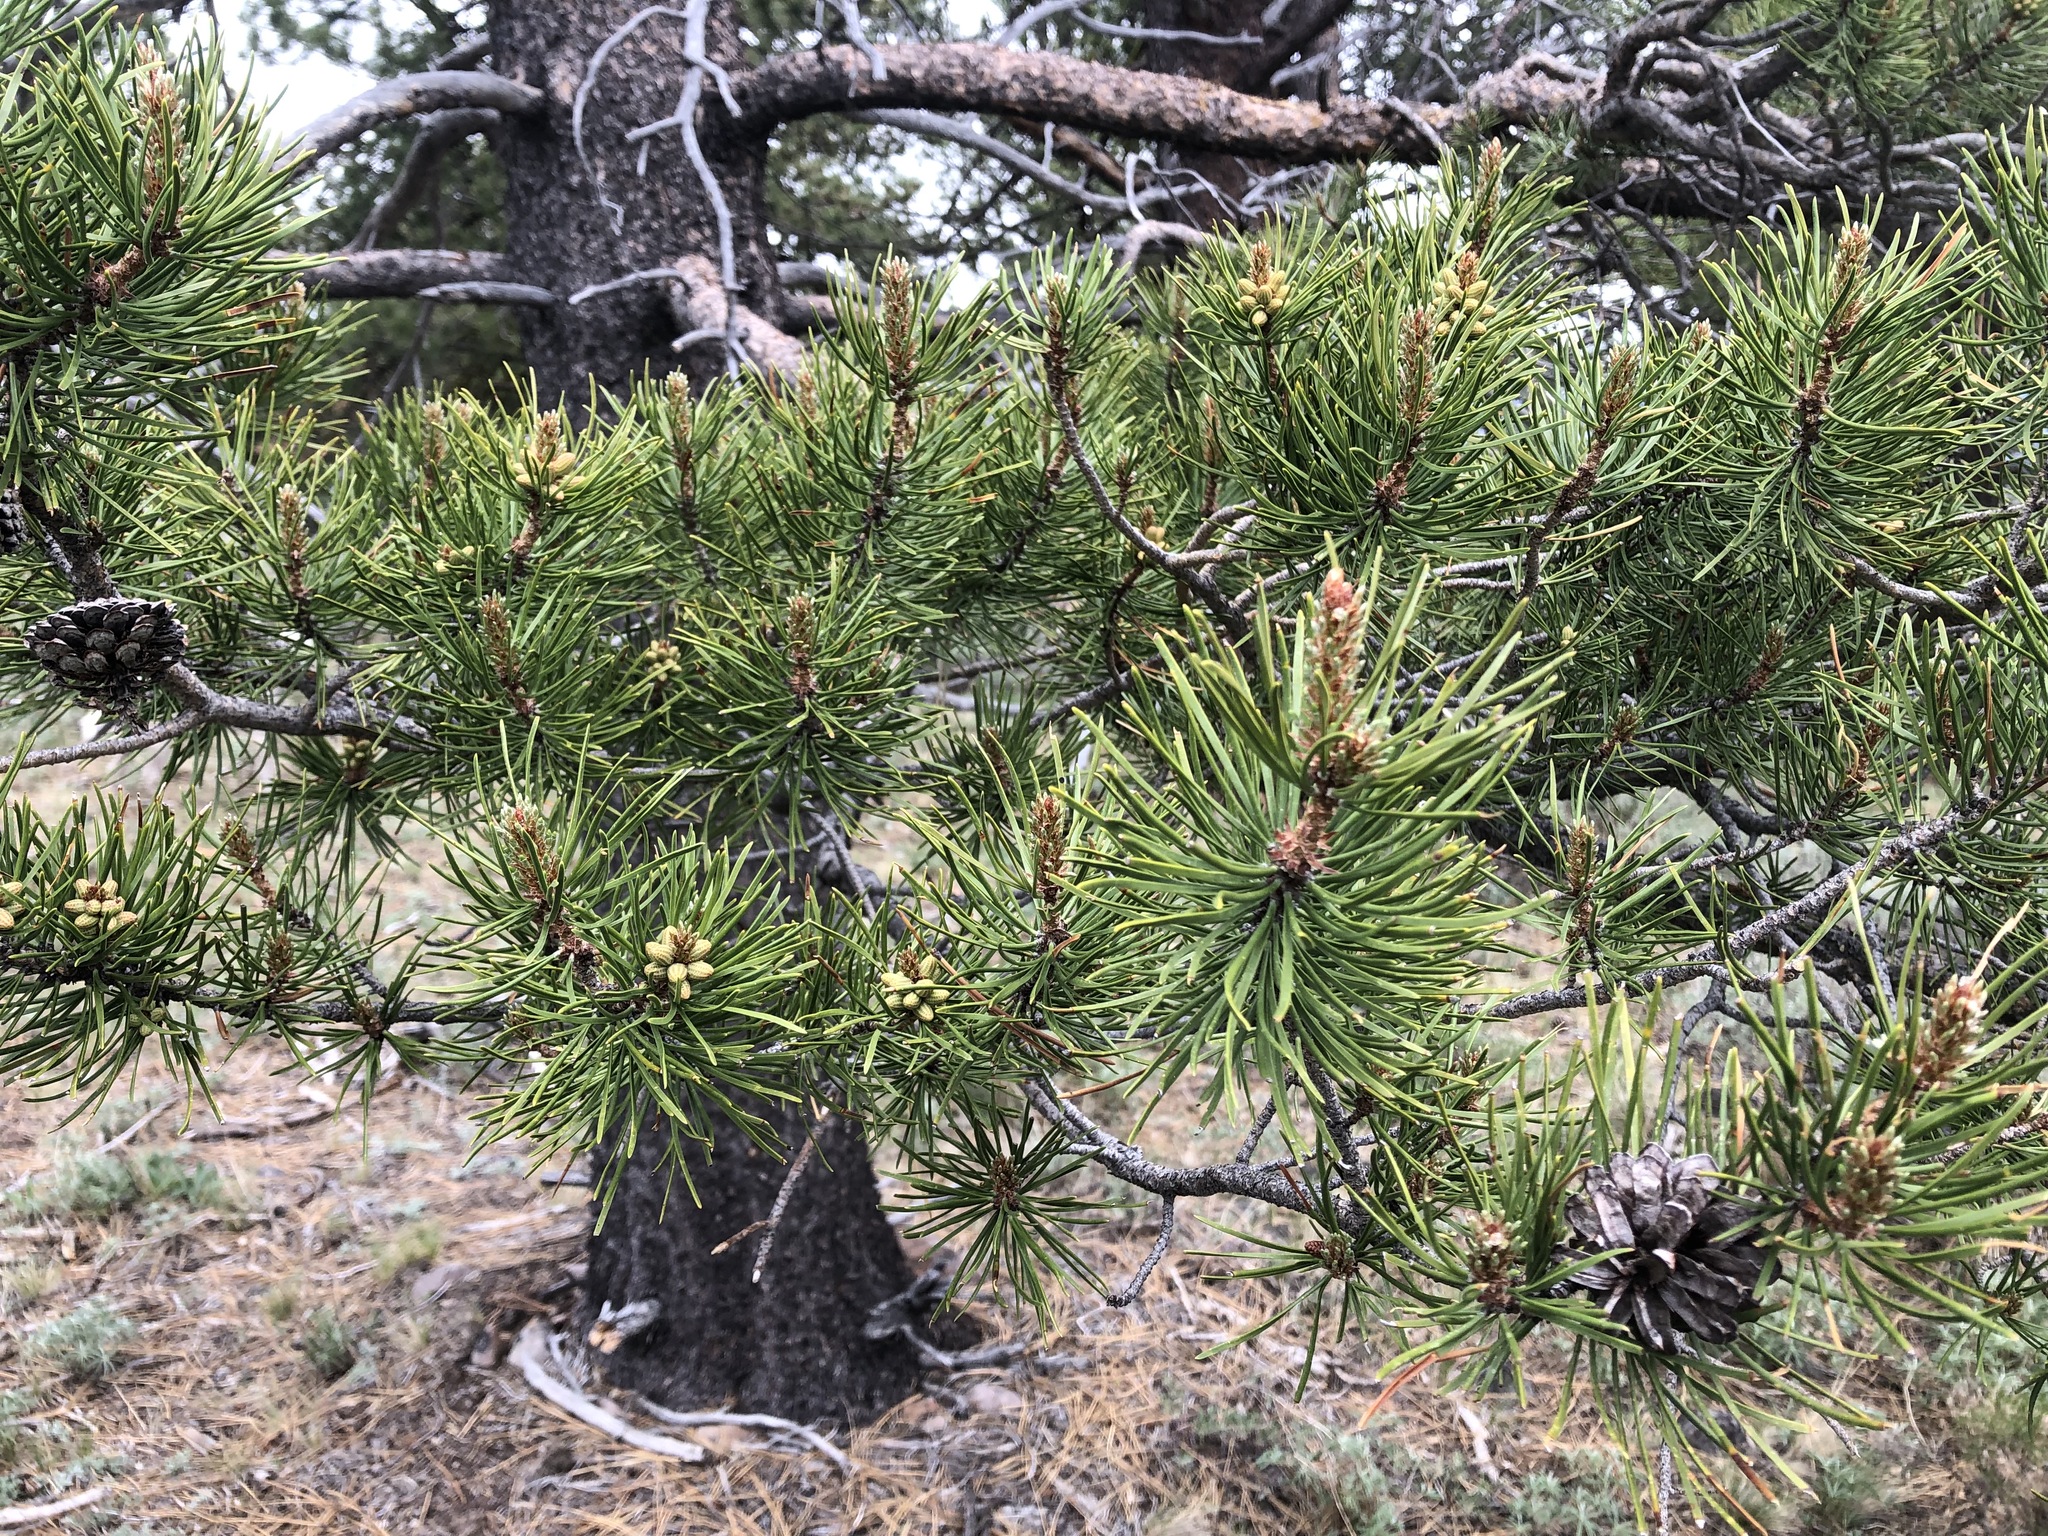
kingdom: Plantae
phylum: Tracheophyta
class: Pinopsida
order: Pinales
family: Pinaceae
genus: Pinus
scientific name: Pinus contorta
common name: Lodgepole pine
